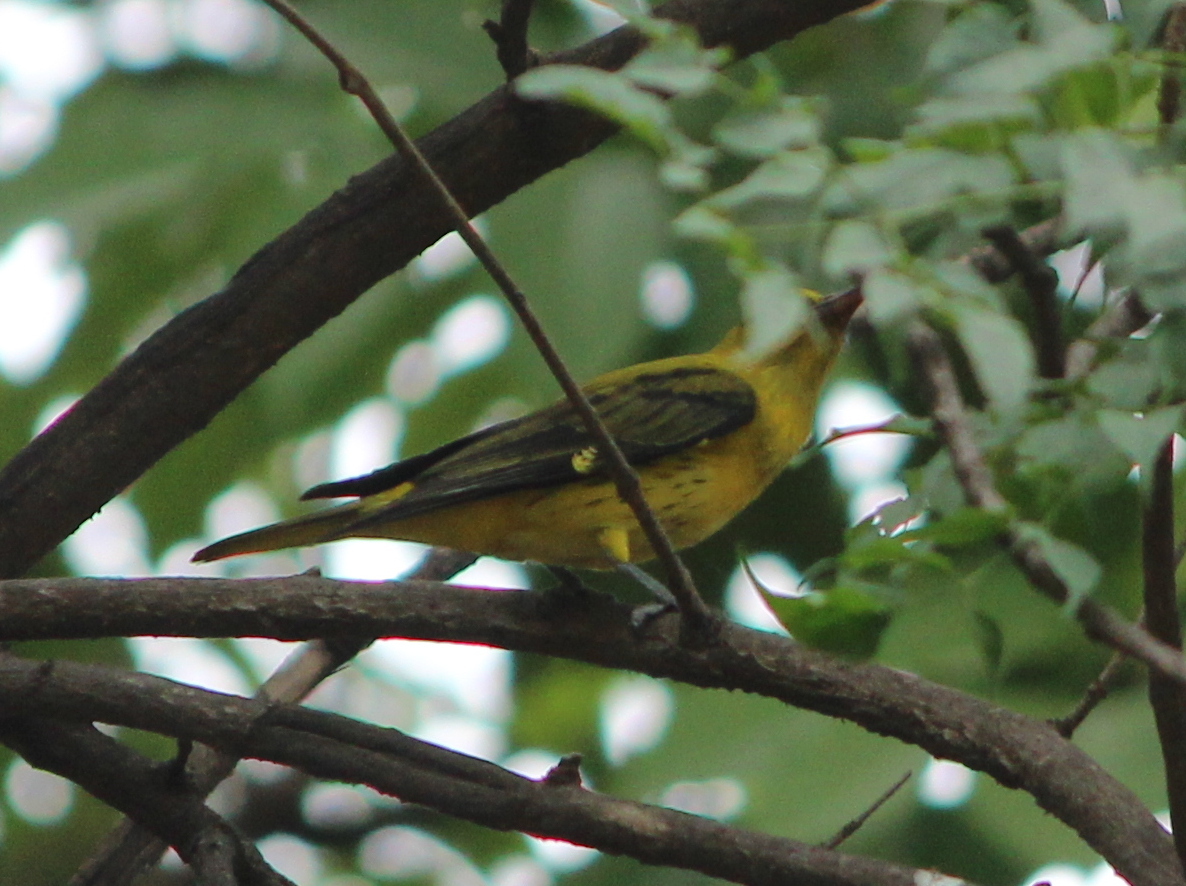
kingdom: Animalia
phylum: Chordata
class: Aves
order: Passeriformes
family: Oriolidae
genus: Oriolus
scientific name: Oriolus kundoo
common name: Indian golden oriole
